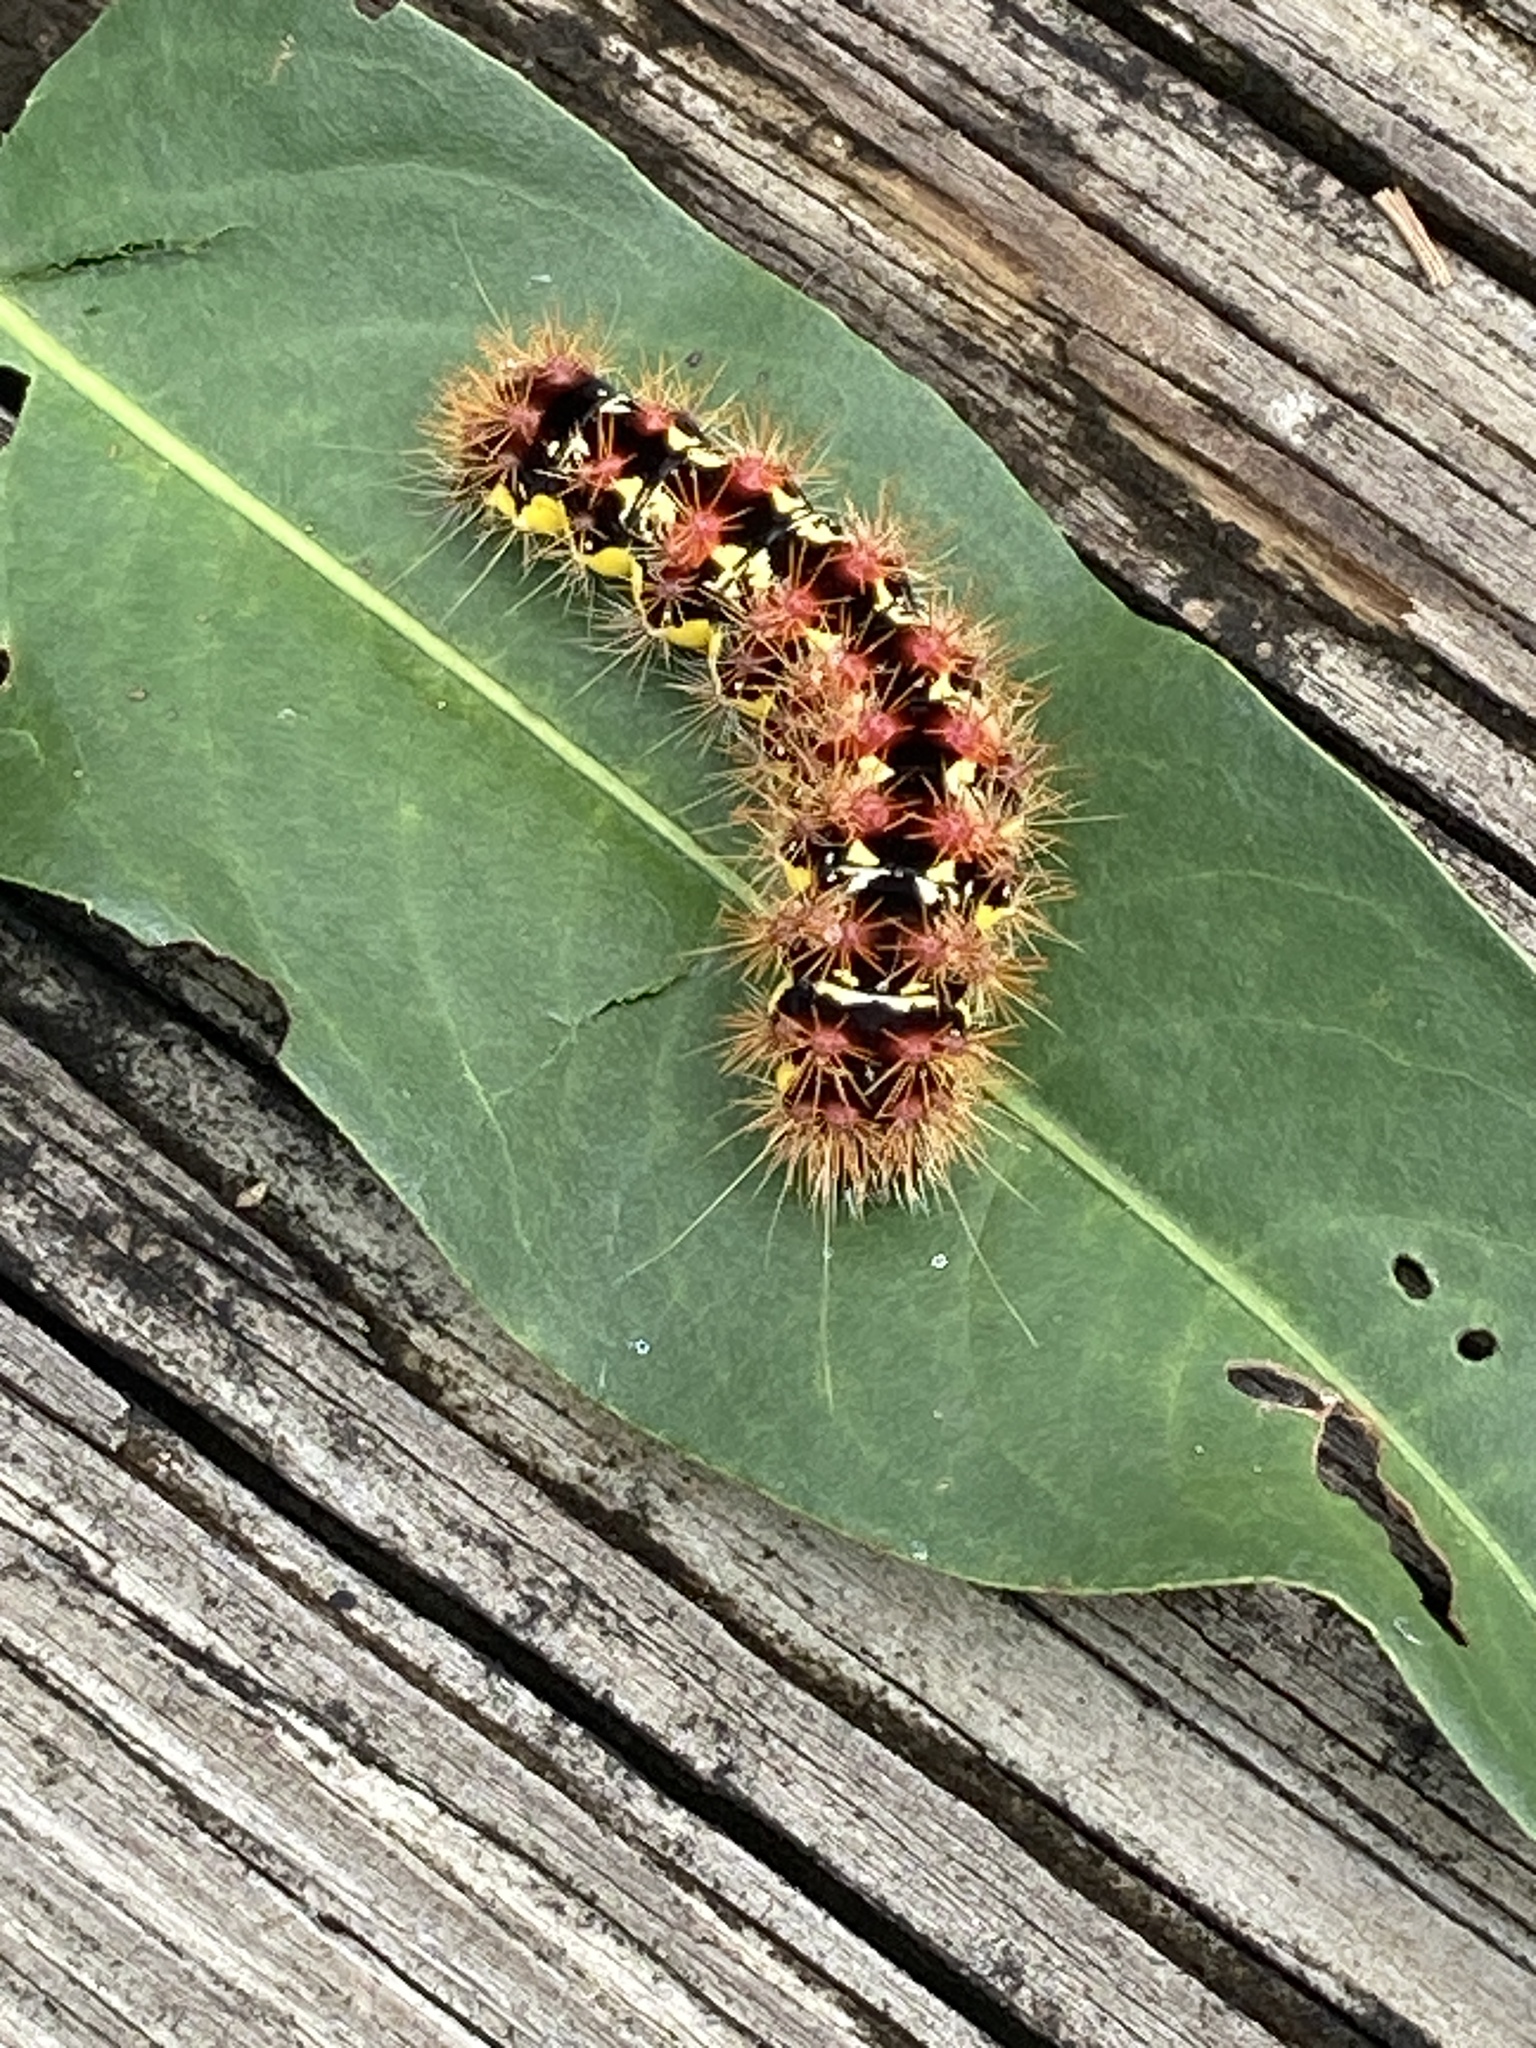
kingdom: Animalia
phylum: Arthropoda
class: Insecta
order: Lepidoptera
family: Noctuidae
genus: Acronicta
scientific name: Acronicta oblinita
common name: Smeared dagger
